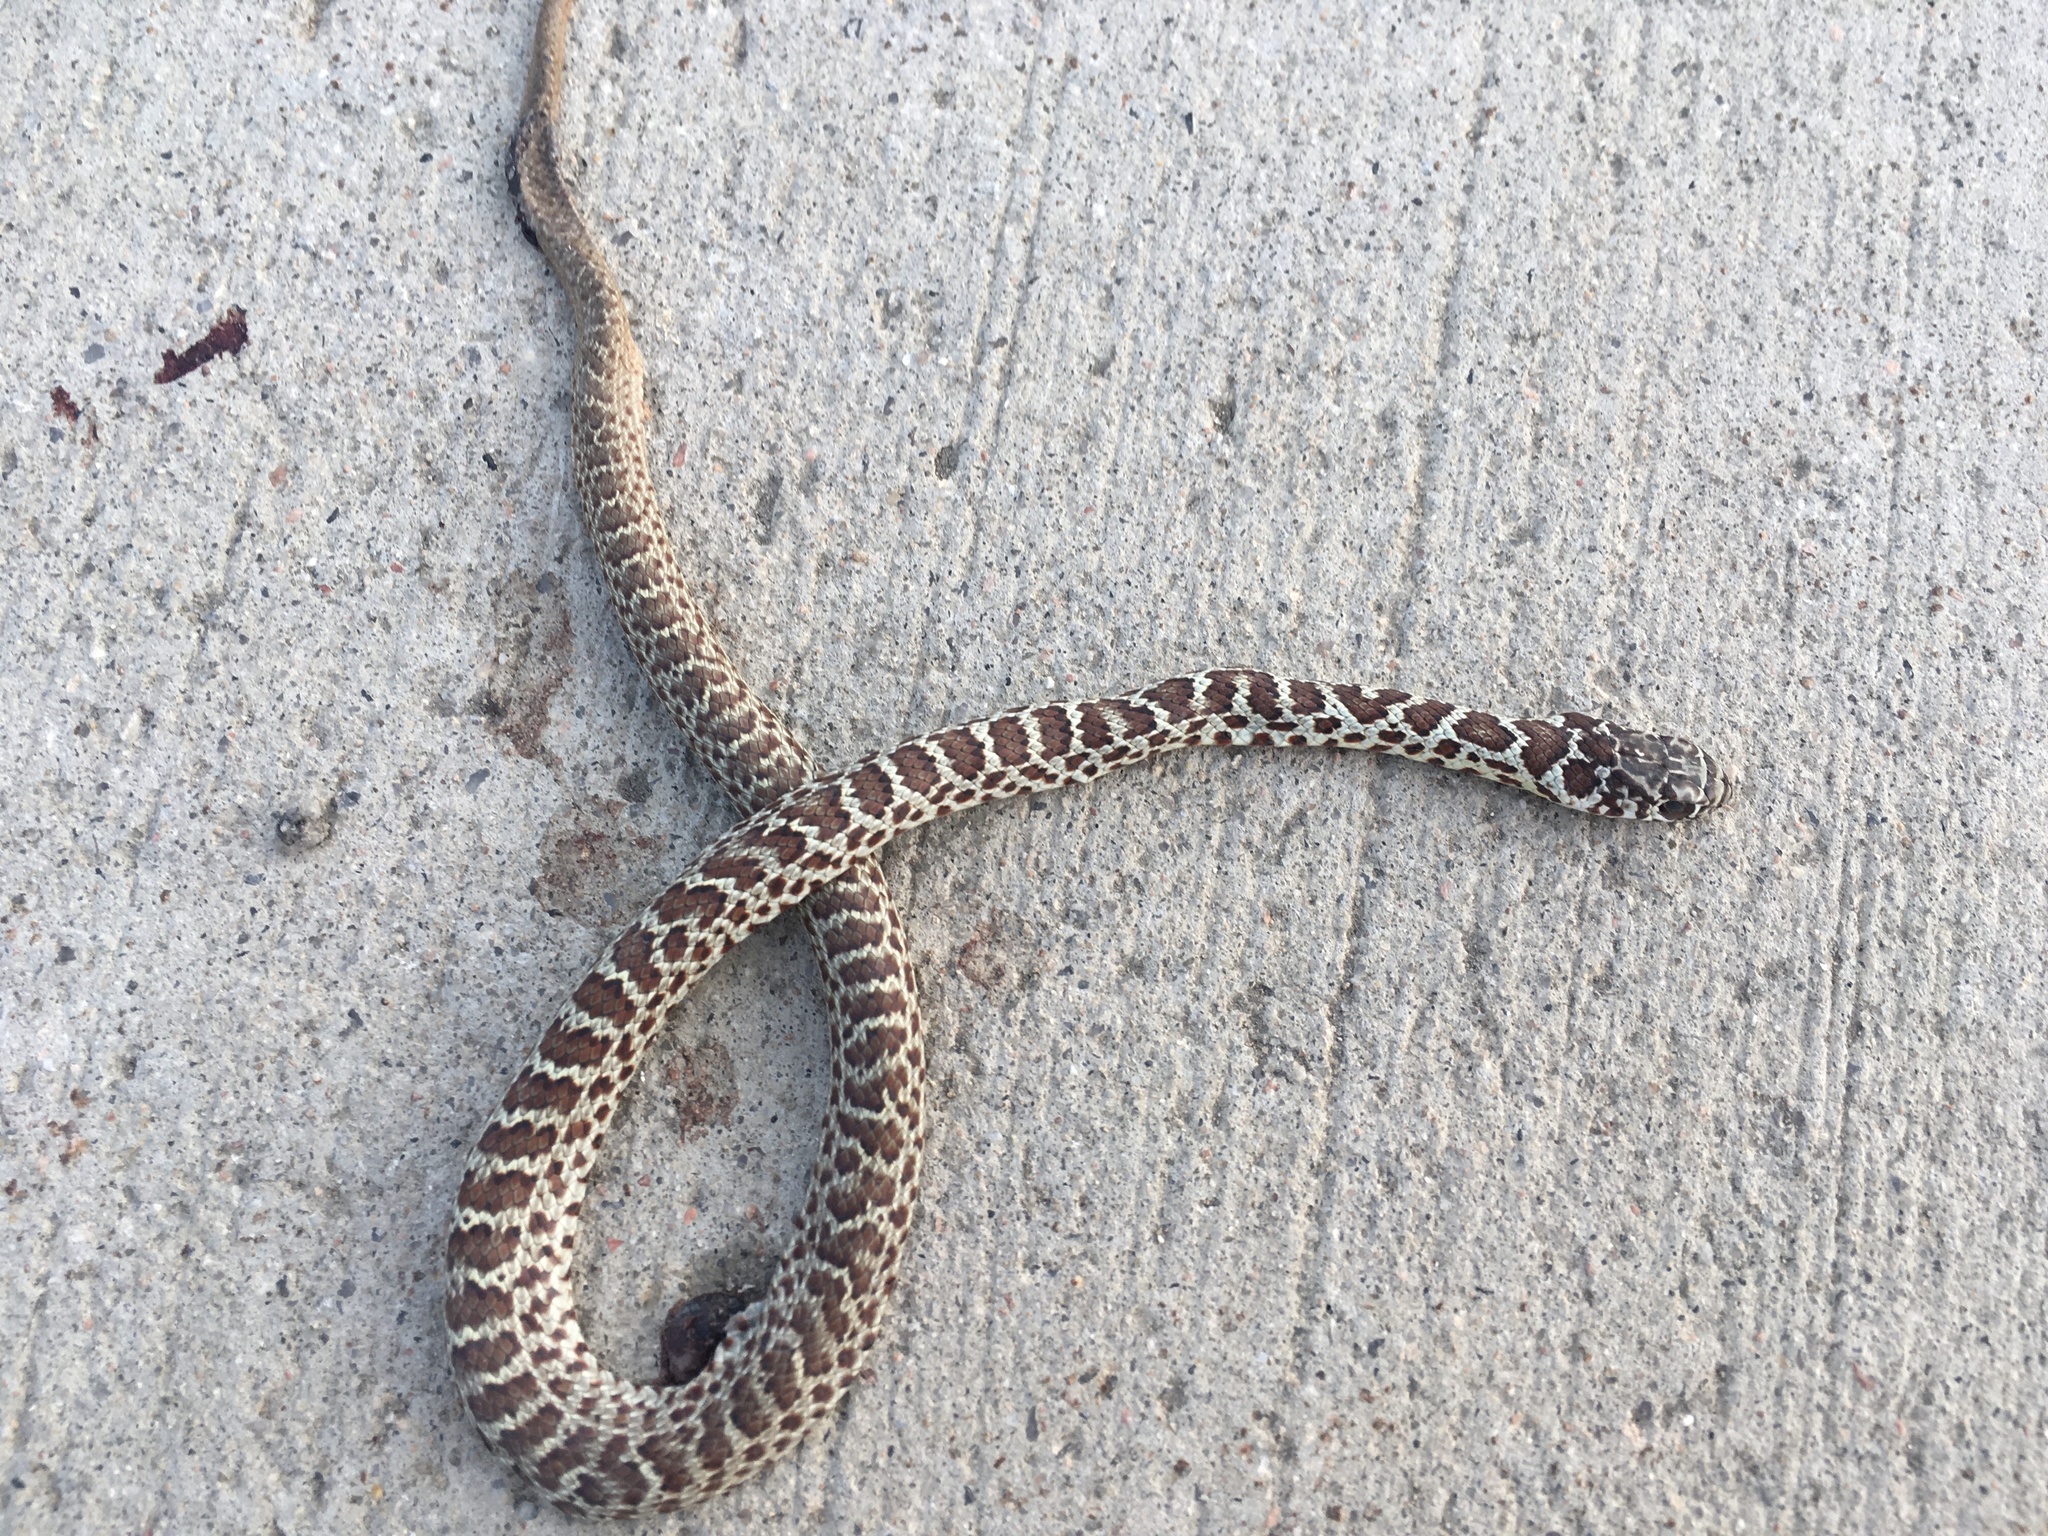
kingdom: Animalia
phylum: Chordata
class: Squamata
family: Colubridae
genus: Coluber
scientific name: Coluber constrictor
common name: Eastern racer
